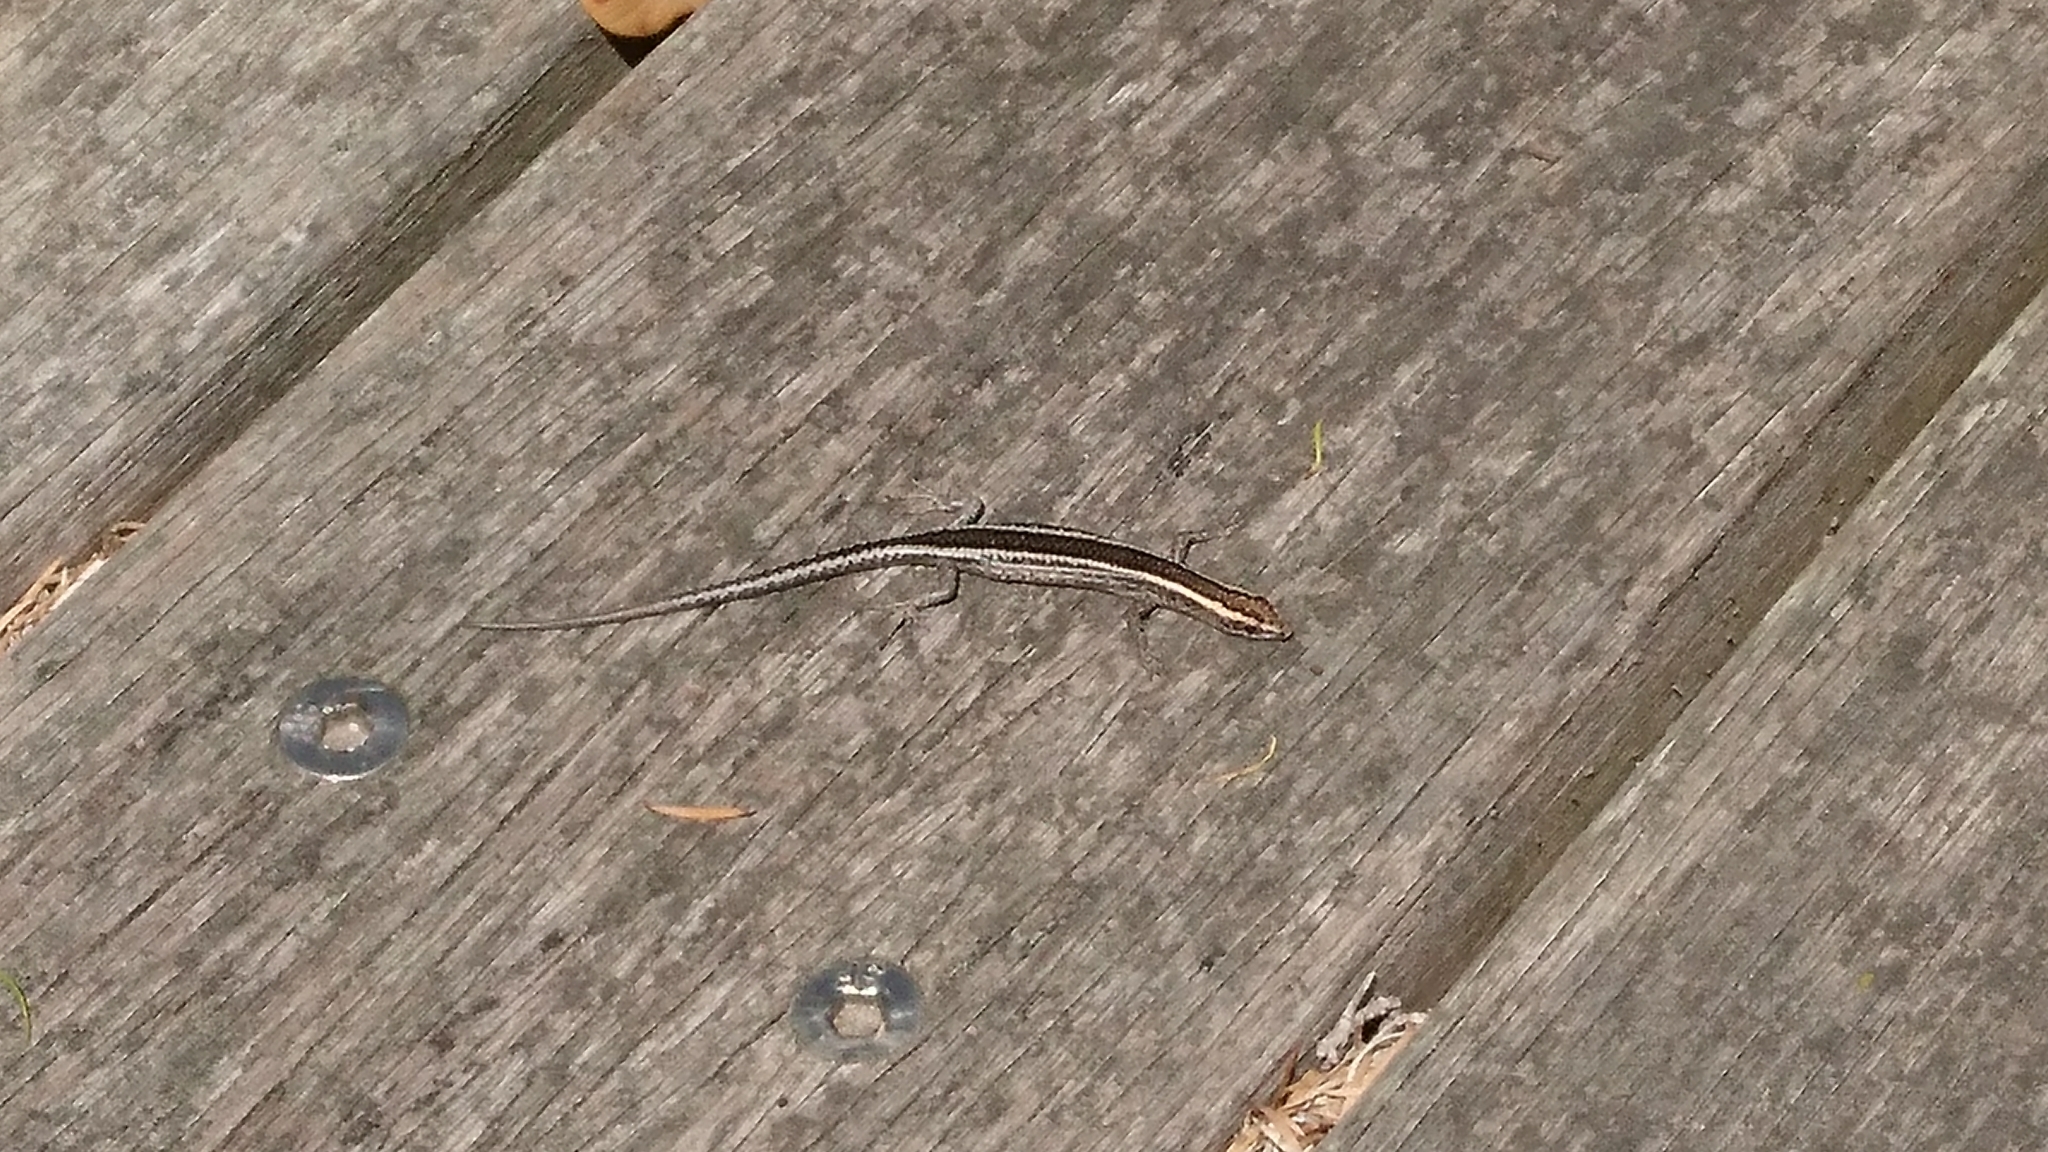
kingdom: Animalia
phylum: Chordata
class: Squamata
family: Scincidae
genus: Cryptoblepharus
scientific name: Cryptoblepharus pulcher
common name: Elegant snake-eyed skink
